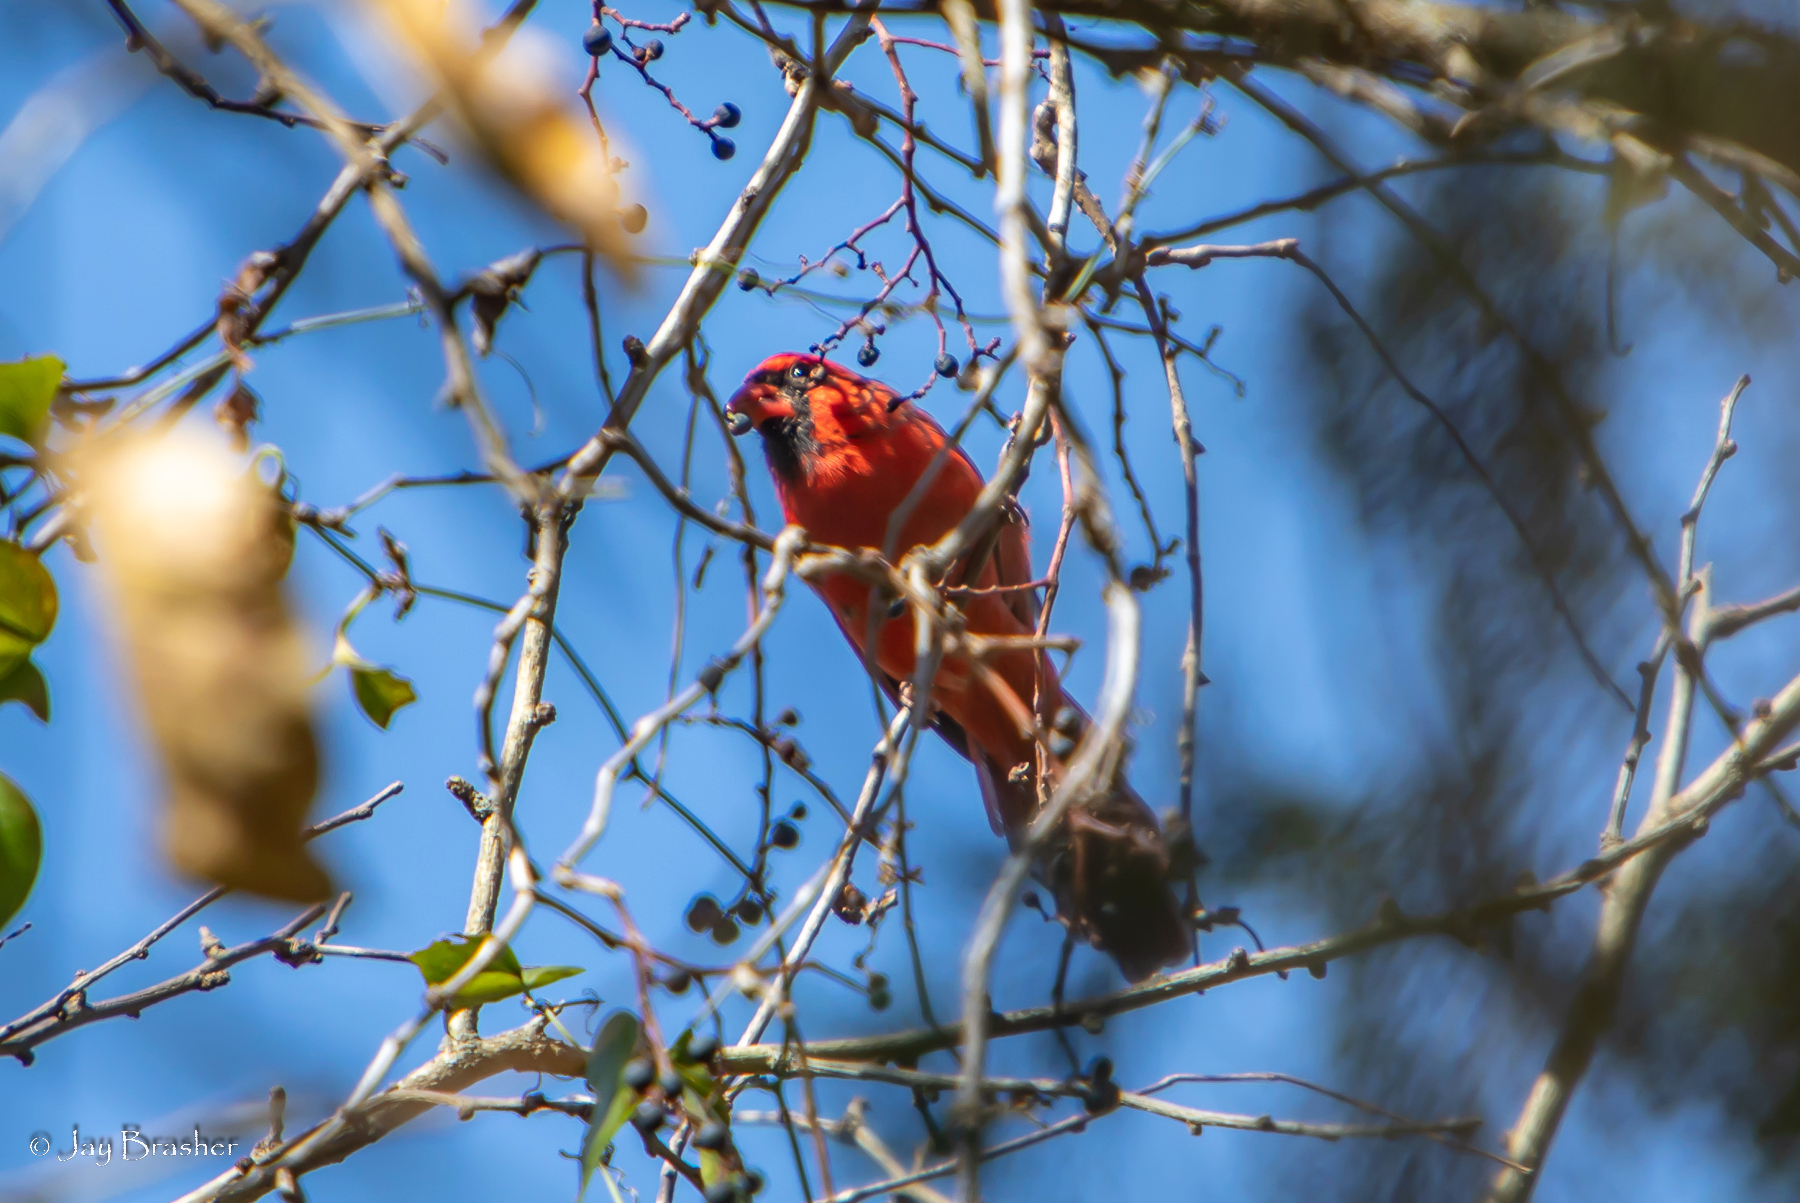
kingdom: Animalia
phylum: Chordata
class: Aves
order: Passeriformes
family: Cardinalidae
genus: Cardinalis
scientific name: Cardinalis cardinalis
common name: Northern cardinal
